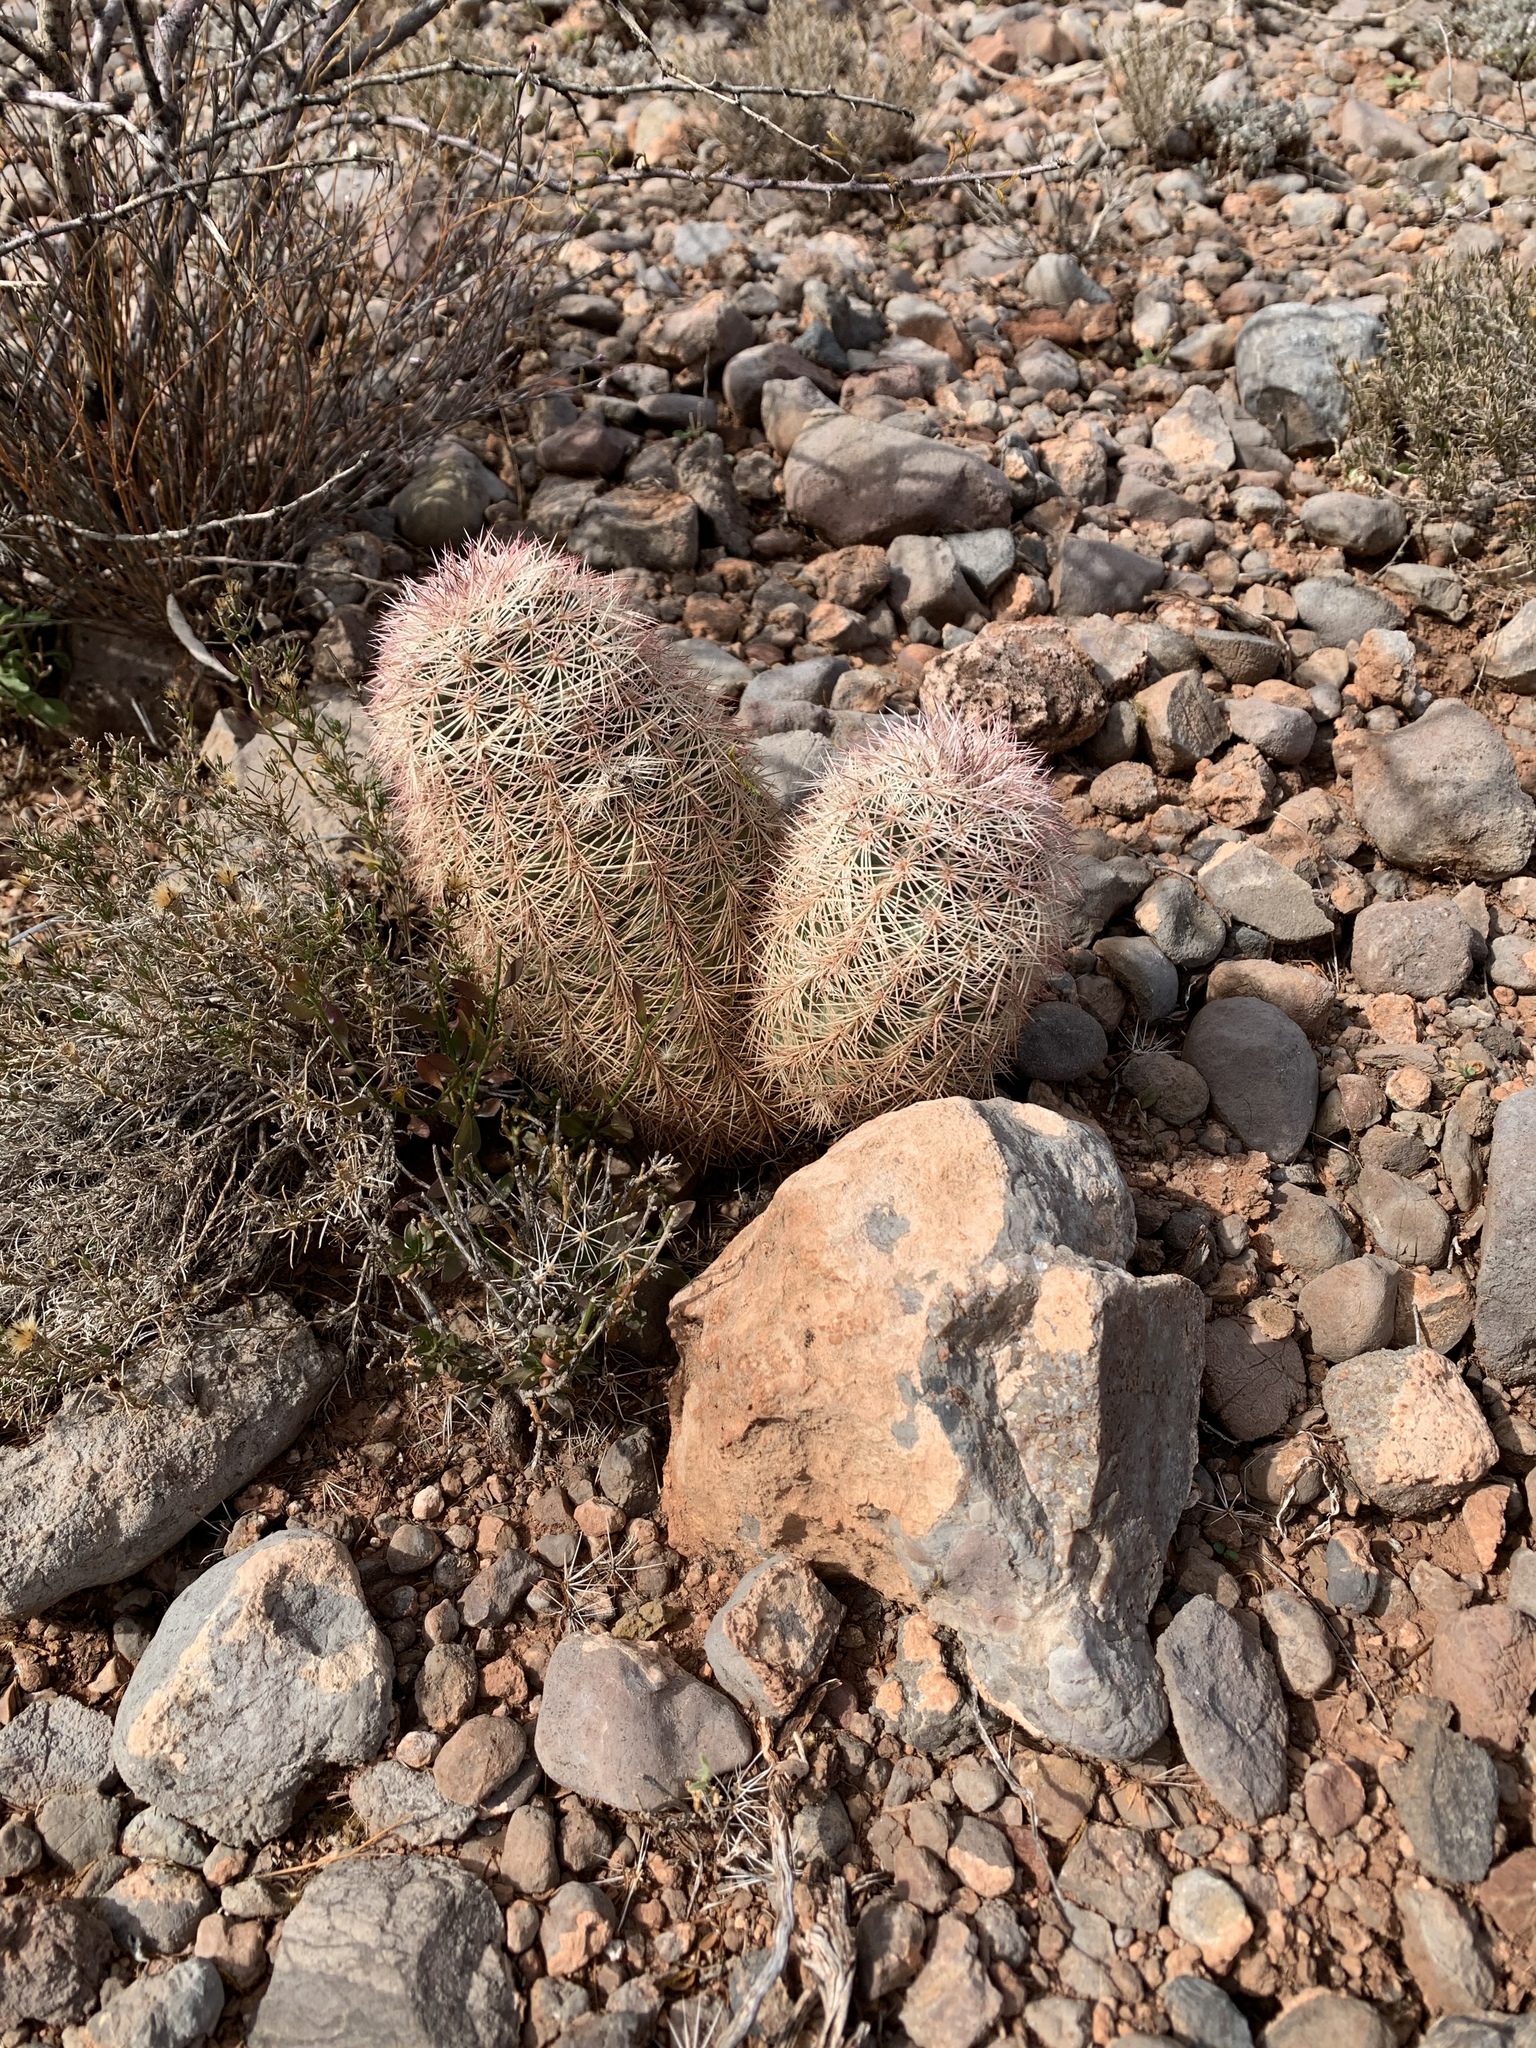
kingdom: Plantae
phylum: Tracheophyta
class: Magnoliopsida
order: Caryophyllales
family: Cactaceae
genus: Echinocereus
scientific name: Echinocereus dasyacanthus
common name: Spiny hedgehog cactus
